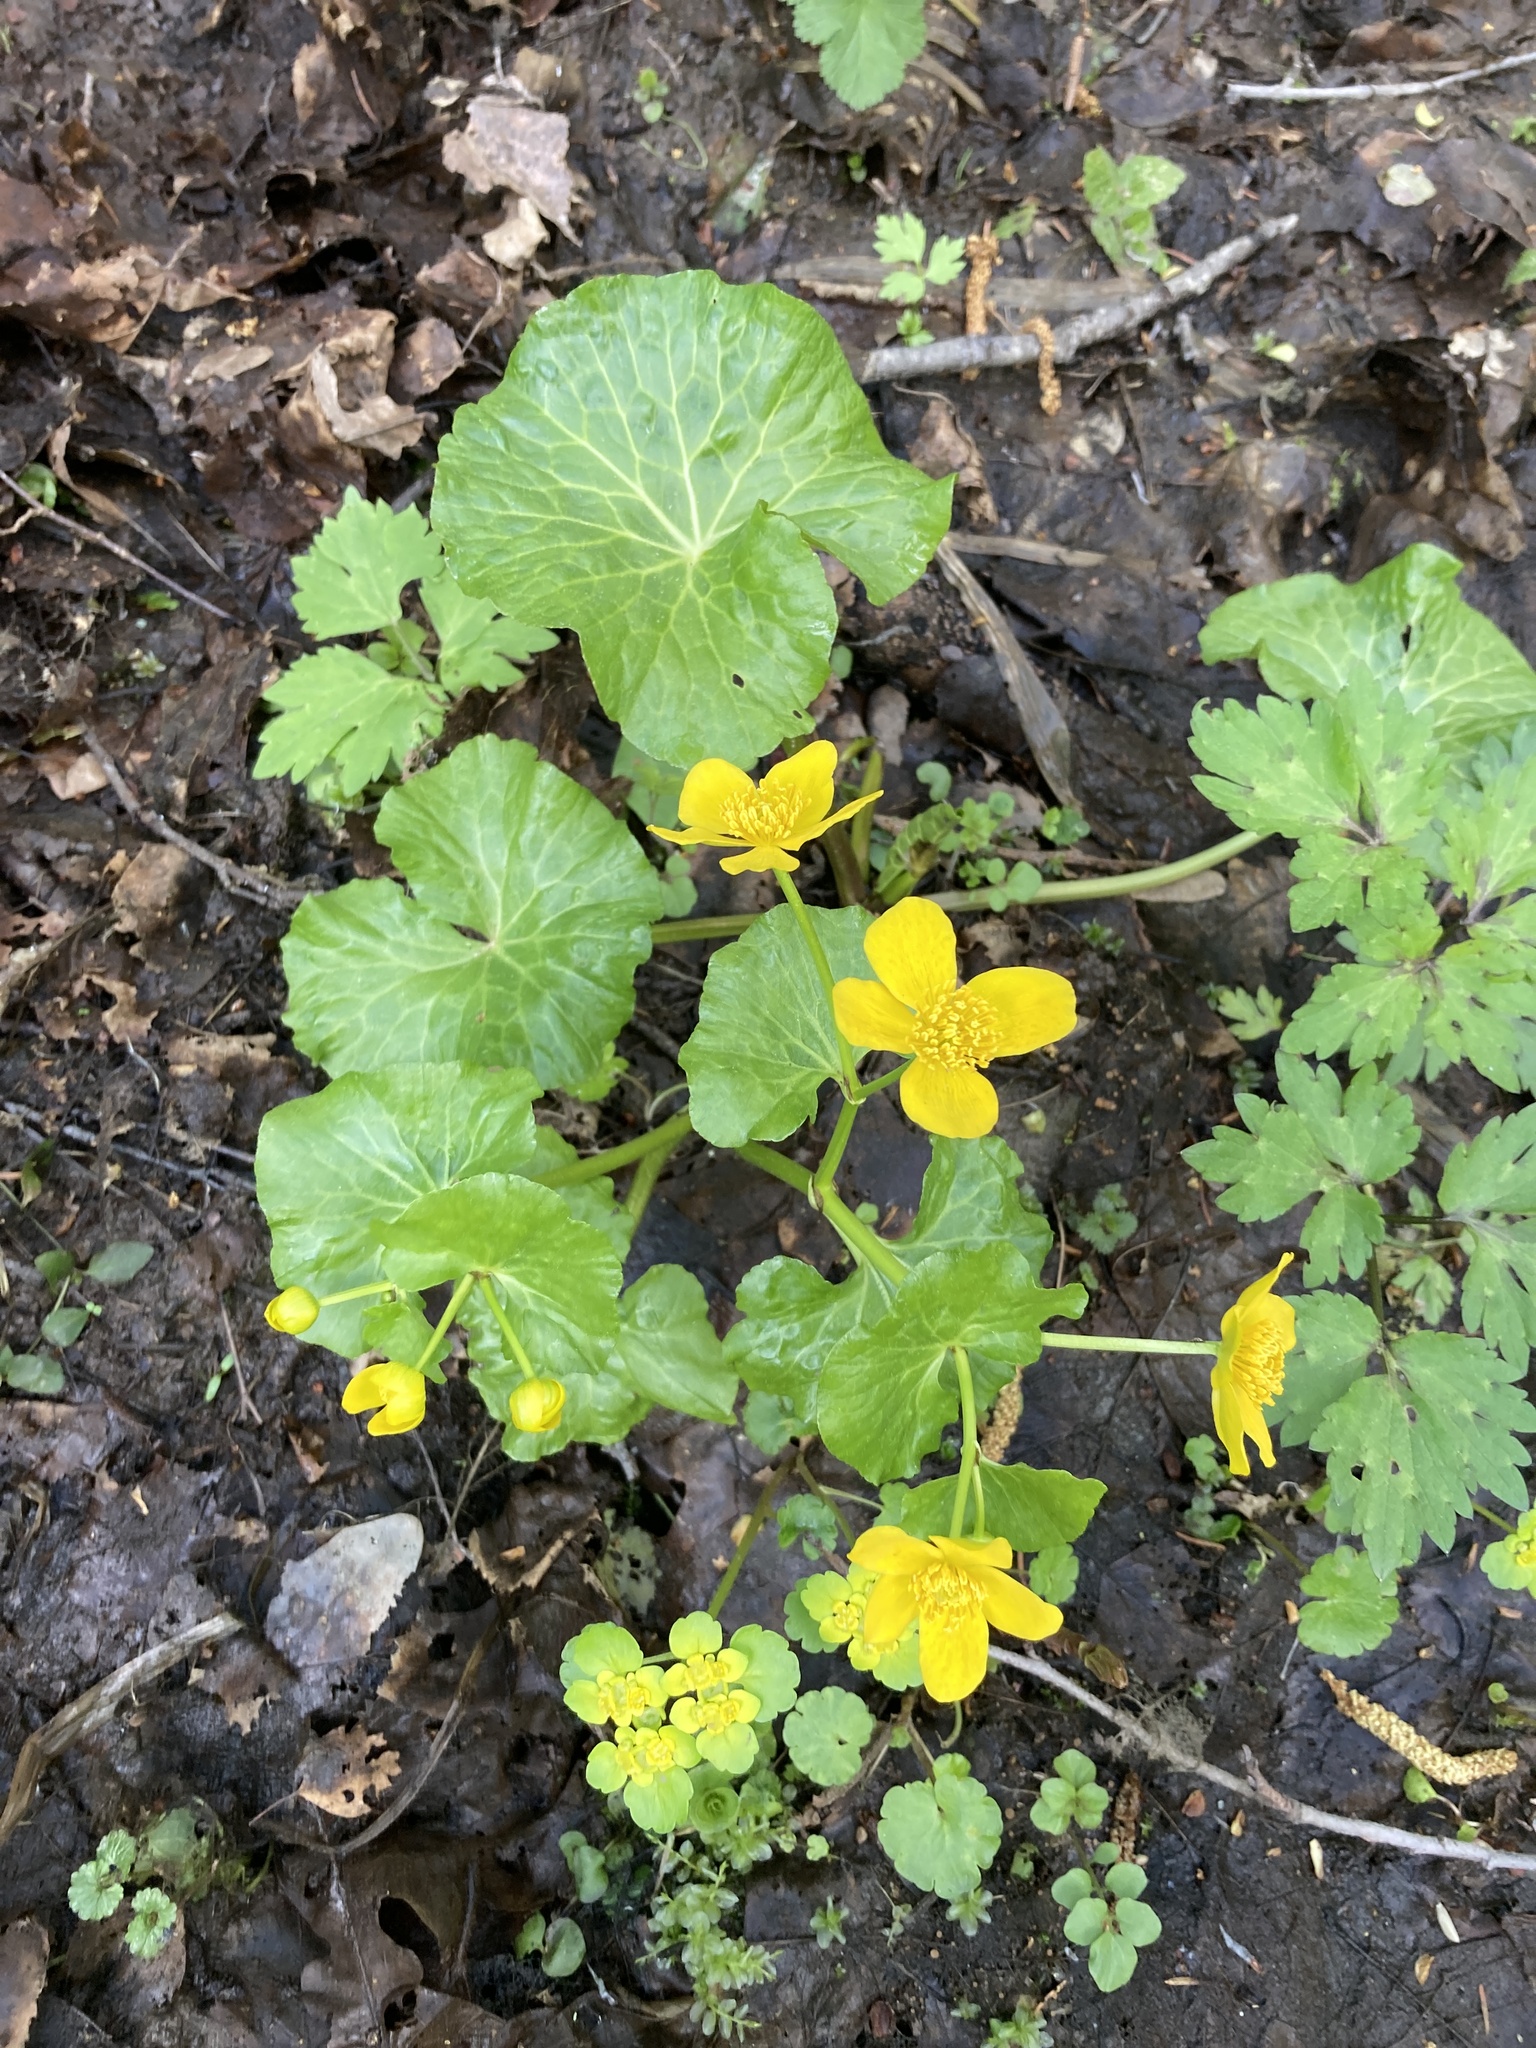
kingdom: Plantae
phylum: Tracheophyta
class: Magnoliopsida
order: Ranunculales
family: Ranunculaceae
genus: Caltha
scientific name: Caltha palustris
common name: Marsh marigold
